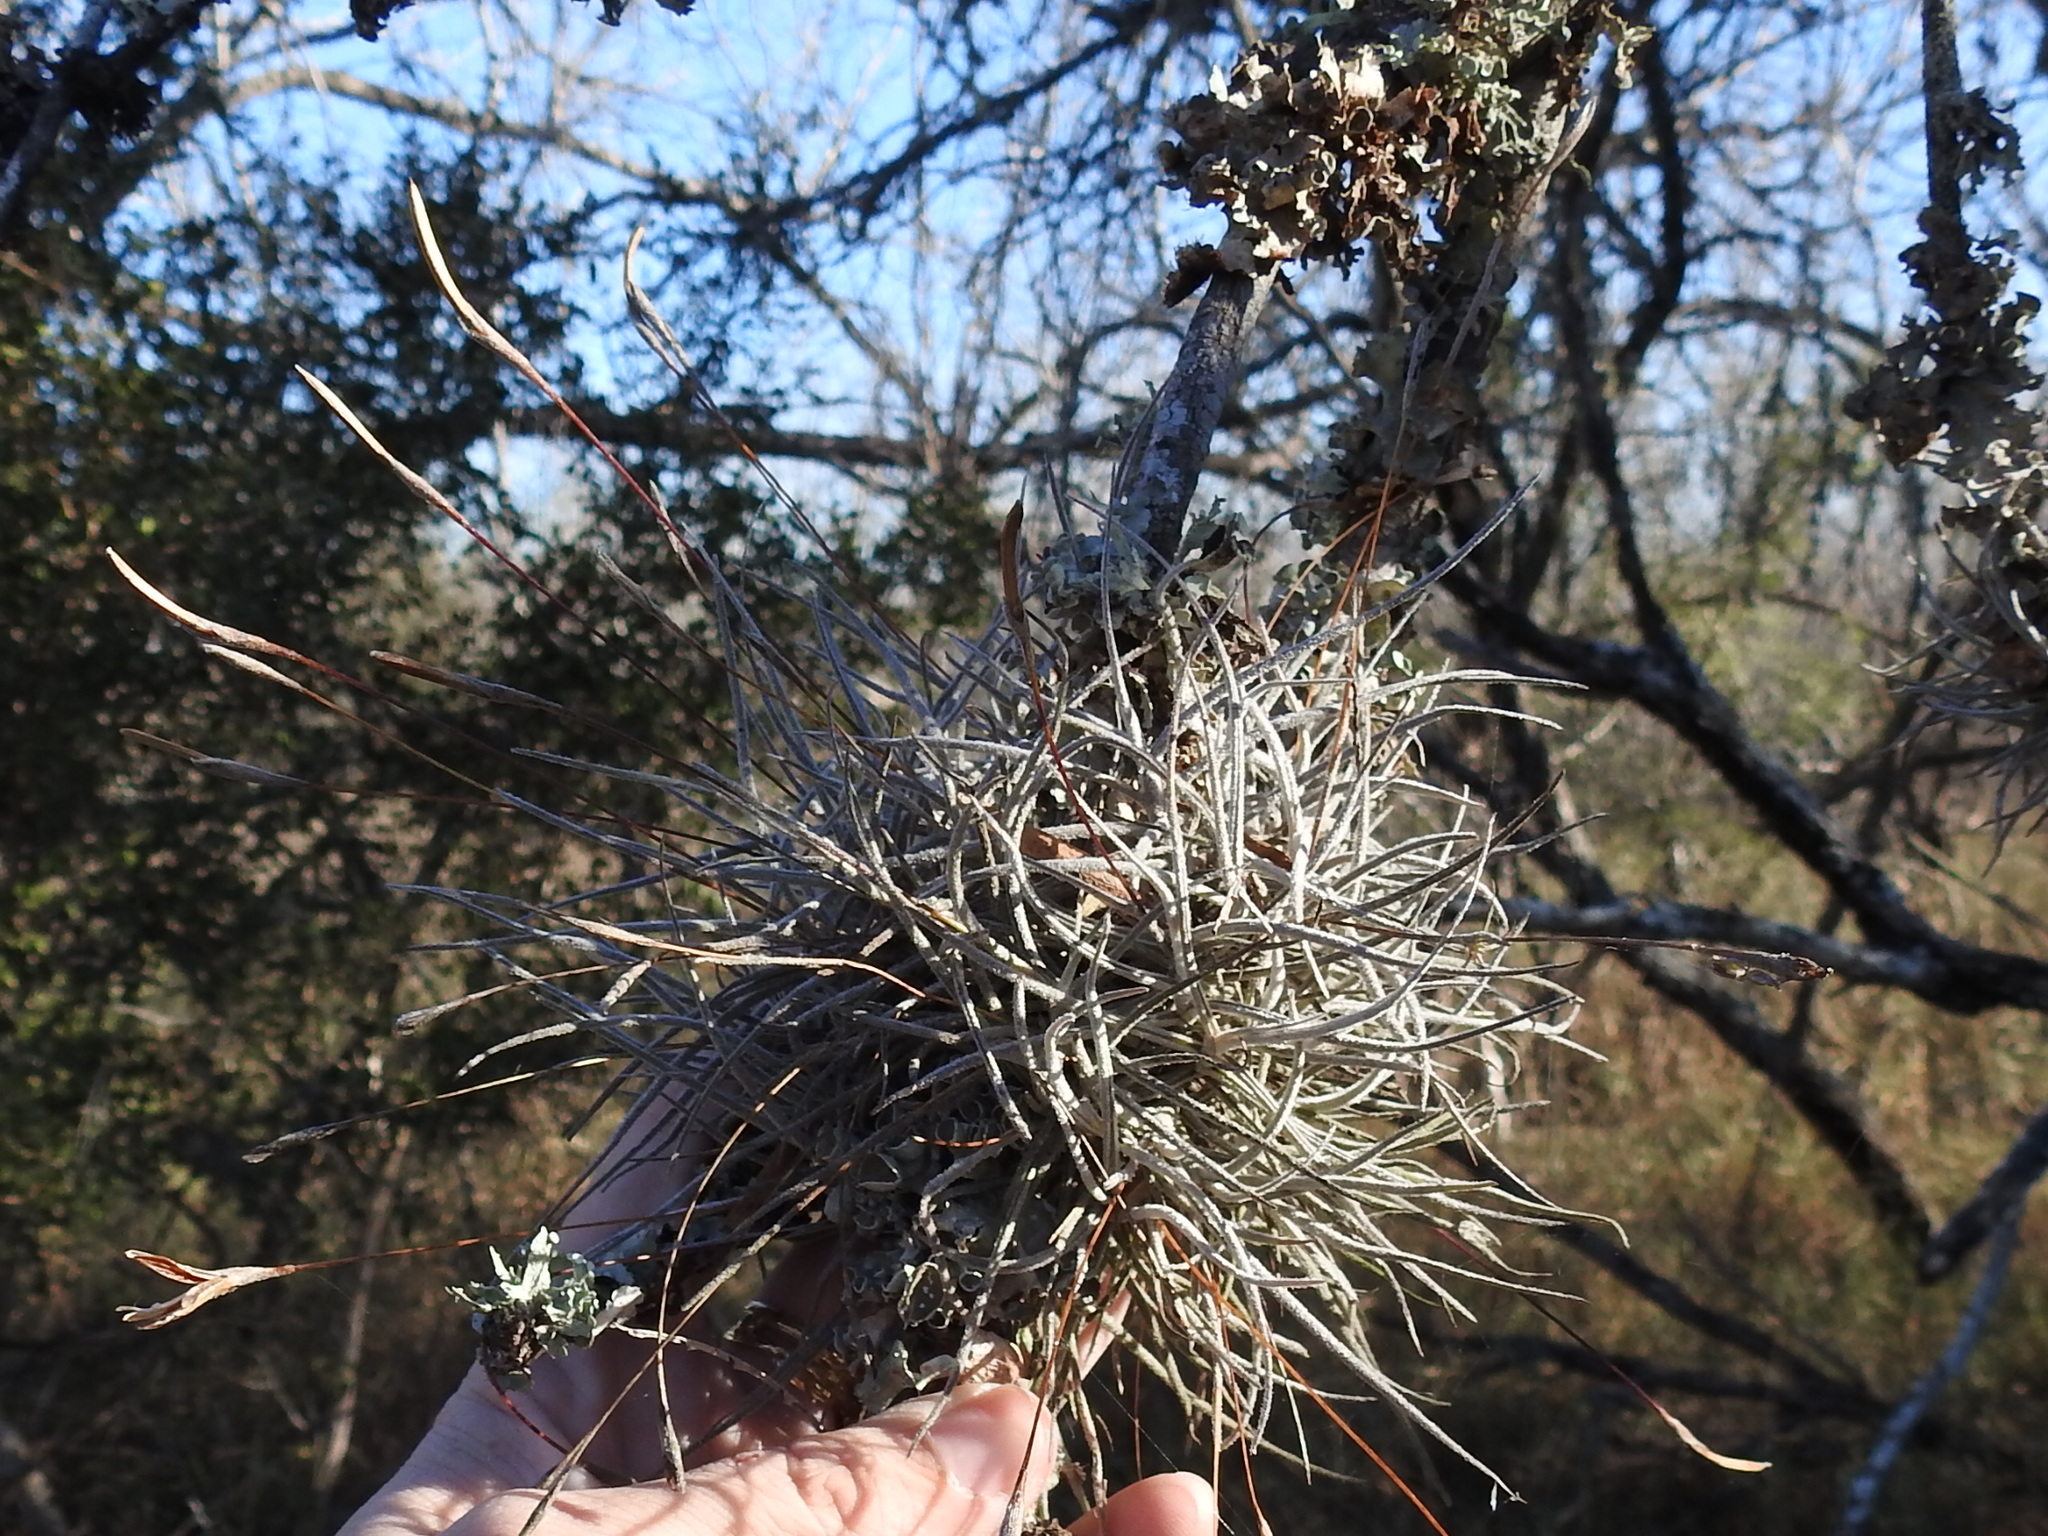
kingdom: Plantae
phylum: Tracheophyta
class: Liliopsida
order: Poales
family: Bromeliaceae
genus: Tillandsia
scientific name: Tillandsia recurvata
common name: Small ballmoss
